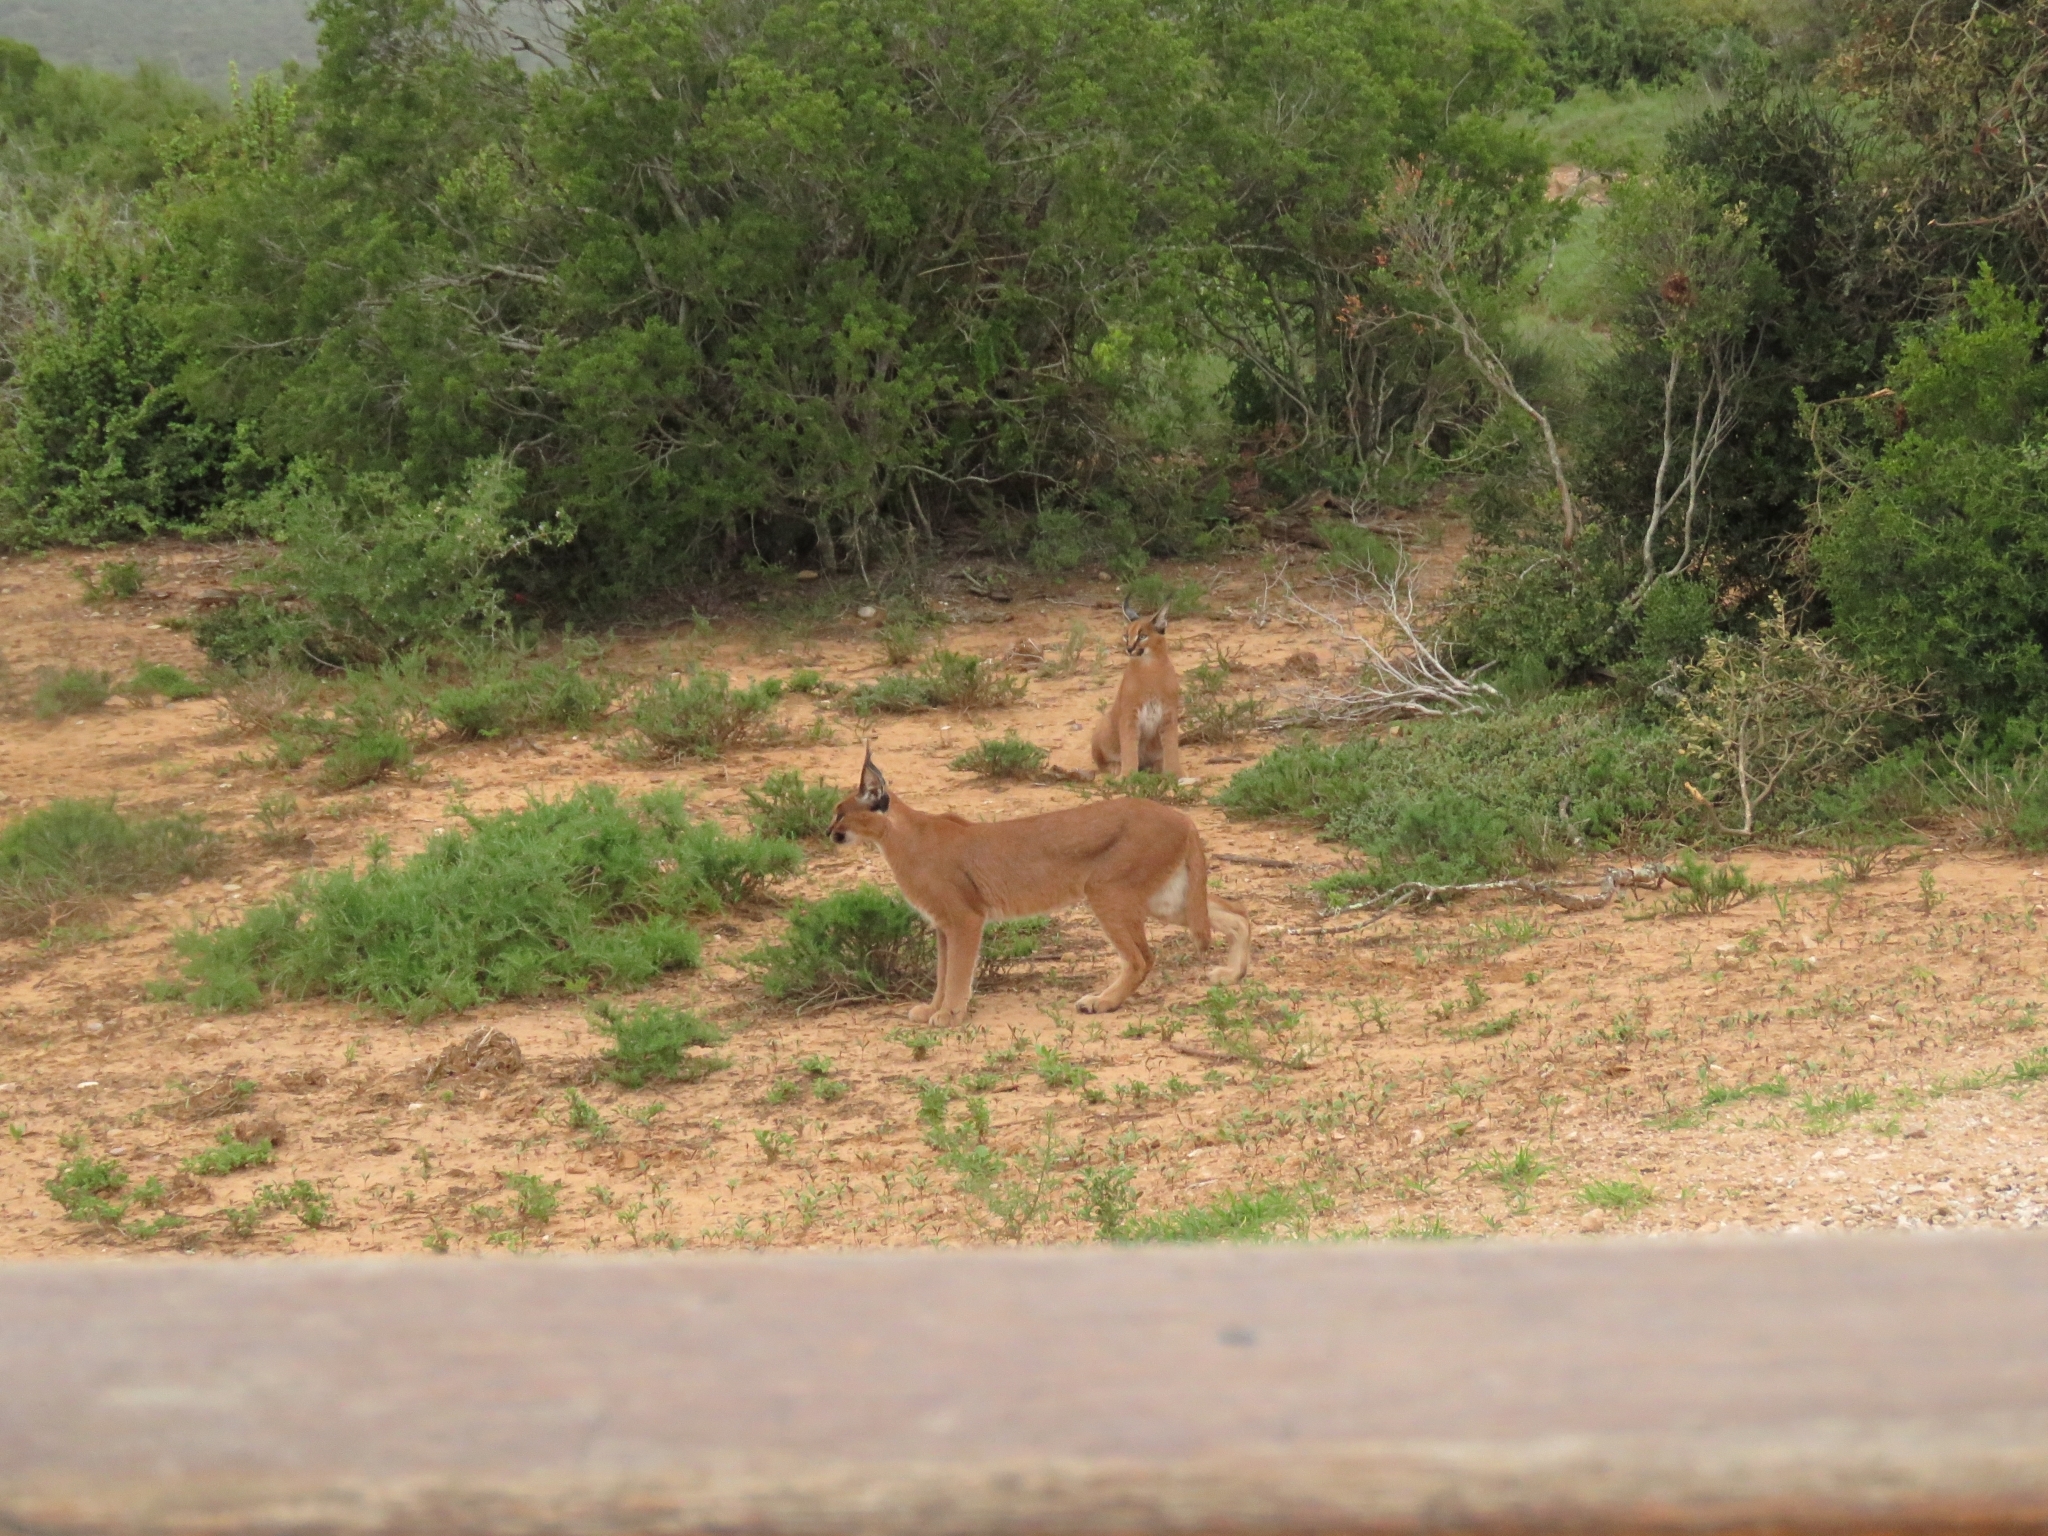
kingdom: Animalia
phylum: Chordata
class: Mammalia
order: Carnivora
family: Felidae
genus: Caracal
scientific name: Caracal caracal
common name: Caracal
